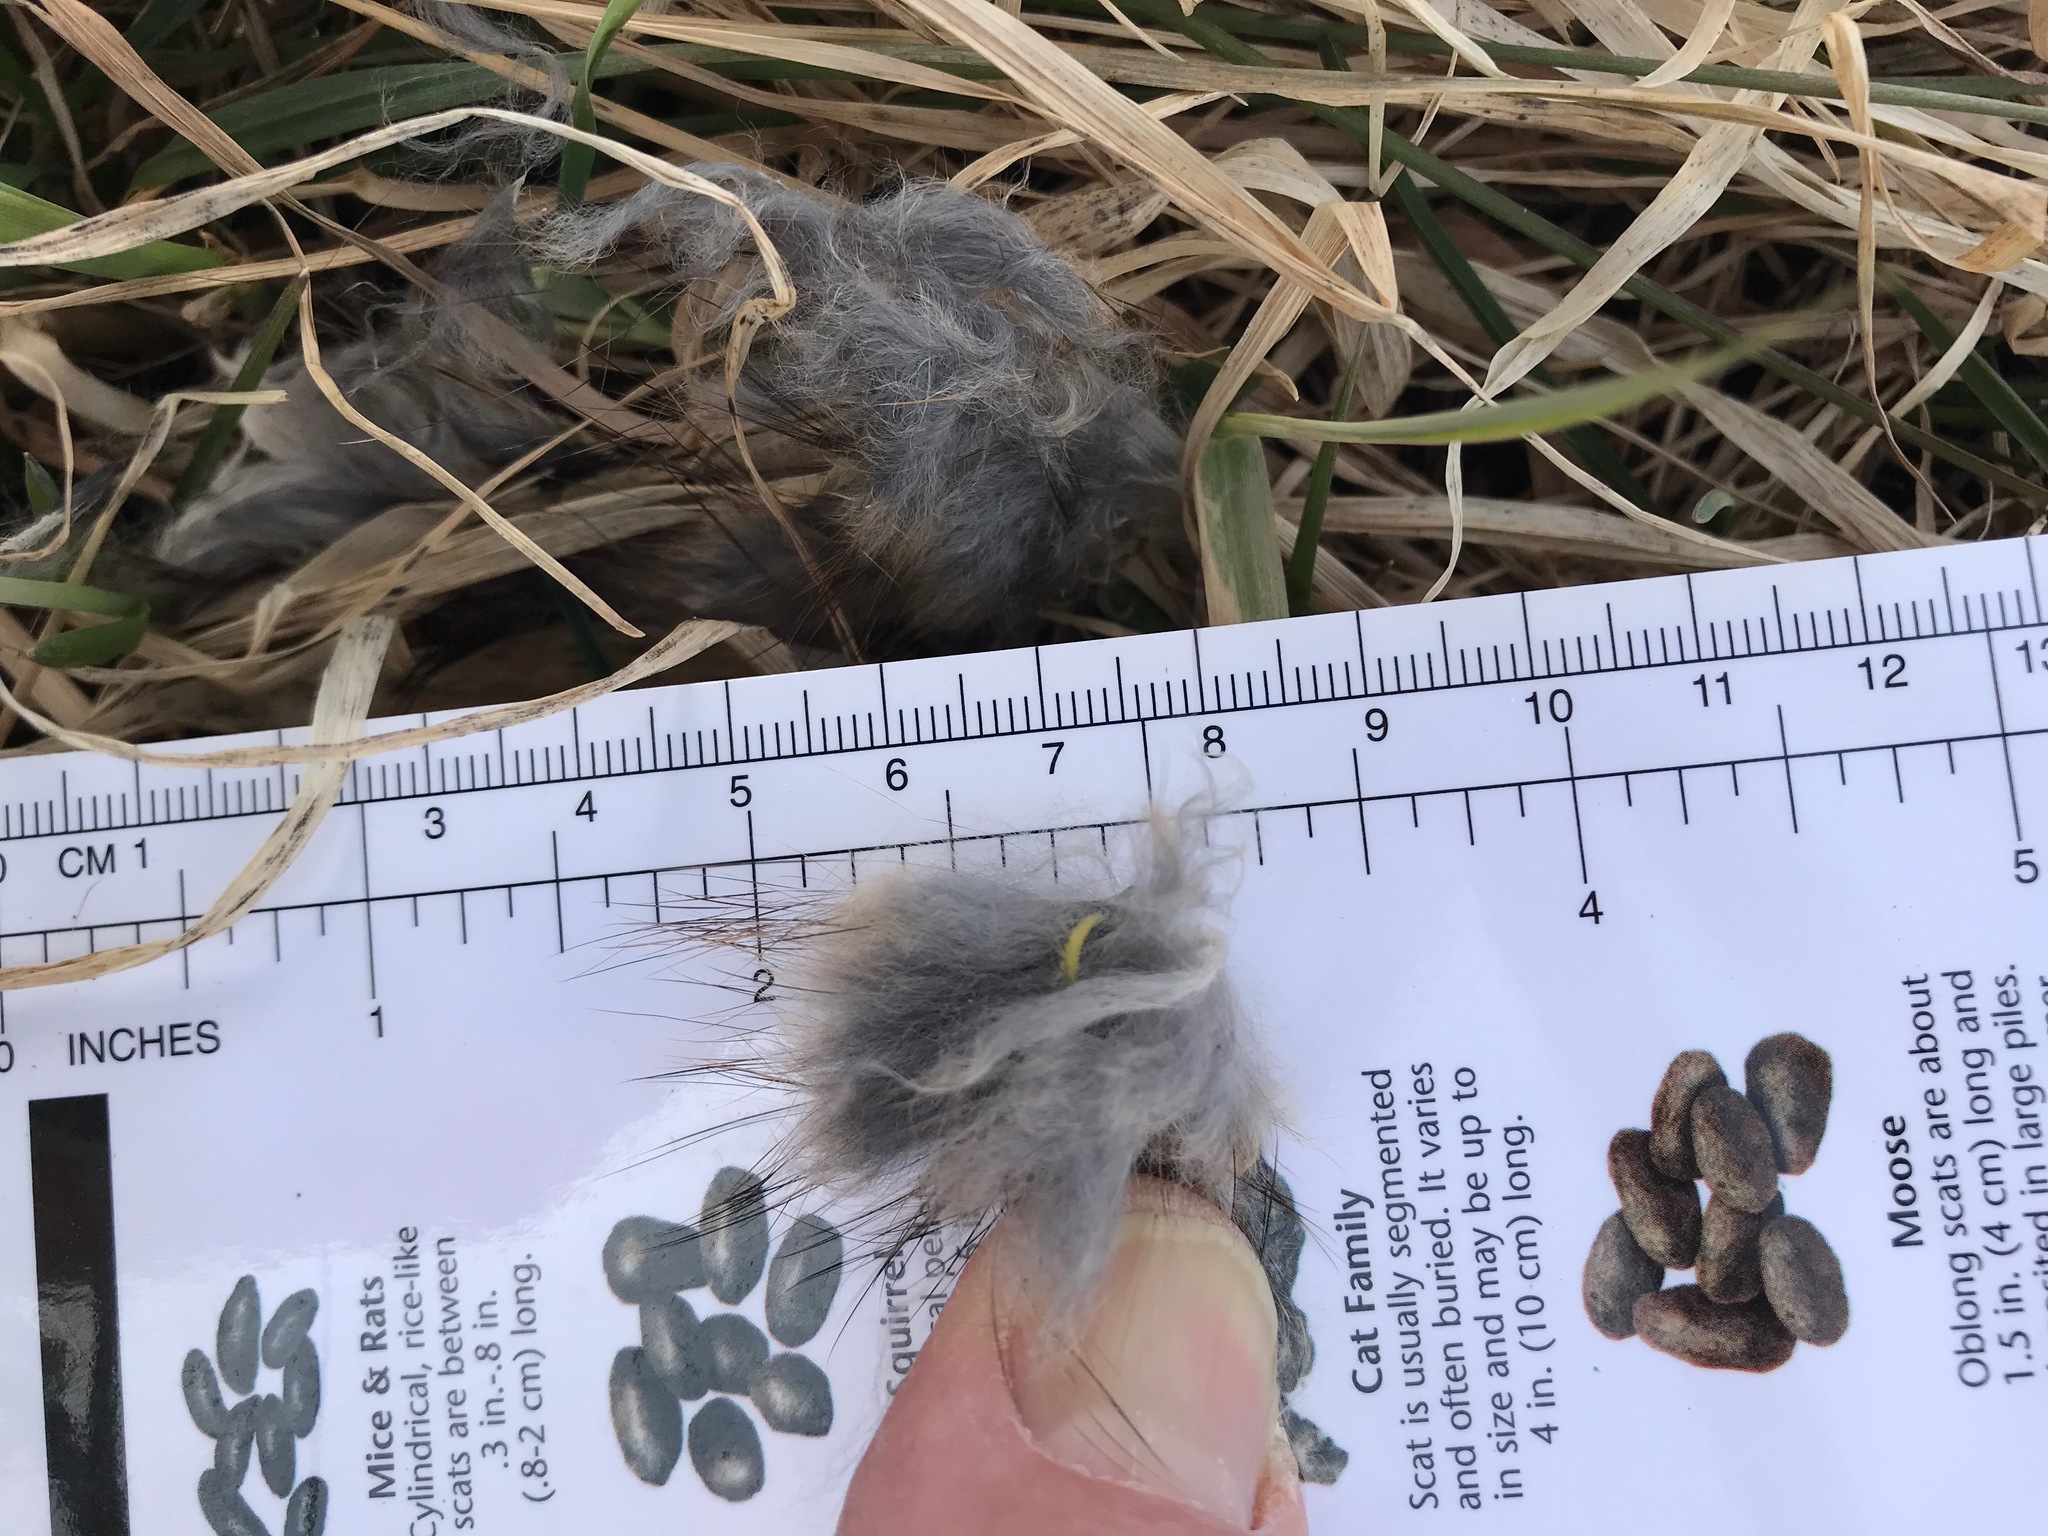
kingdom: Animalia
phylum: Chordata
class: Mammalia
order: Rodentia
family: Cricetidae
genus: Ondatra
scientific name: Ondatra zibethicus
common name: Muskrat
